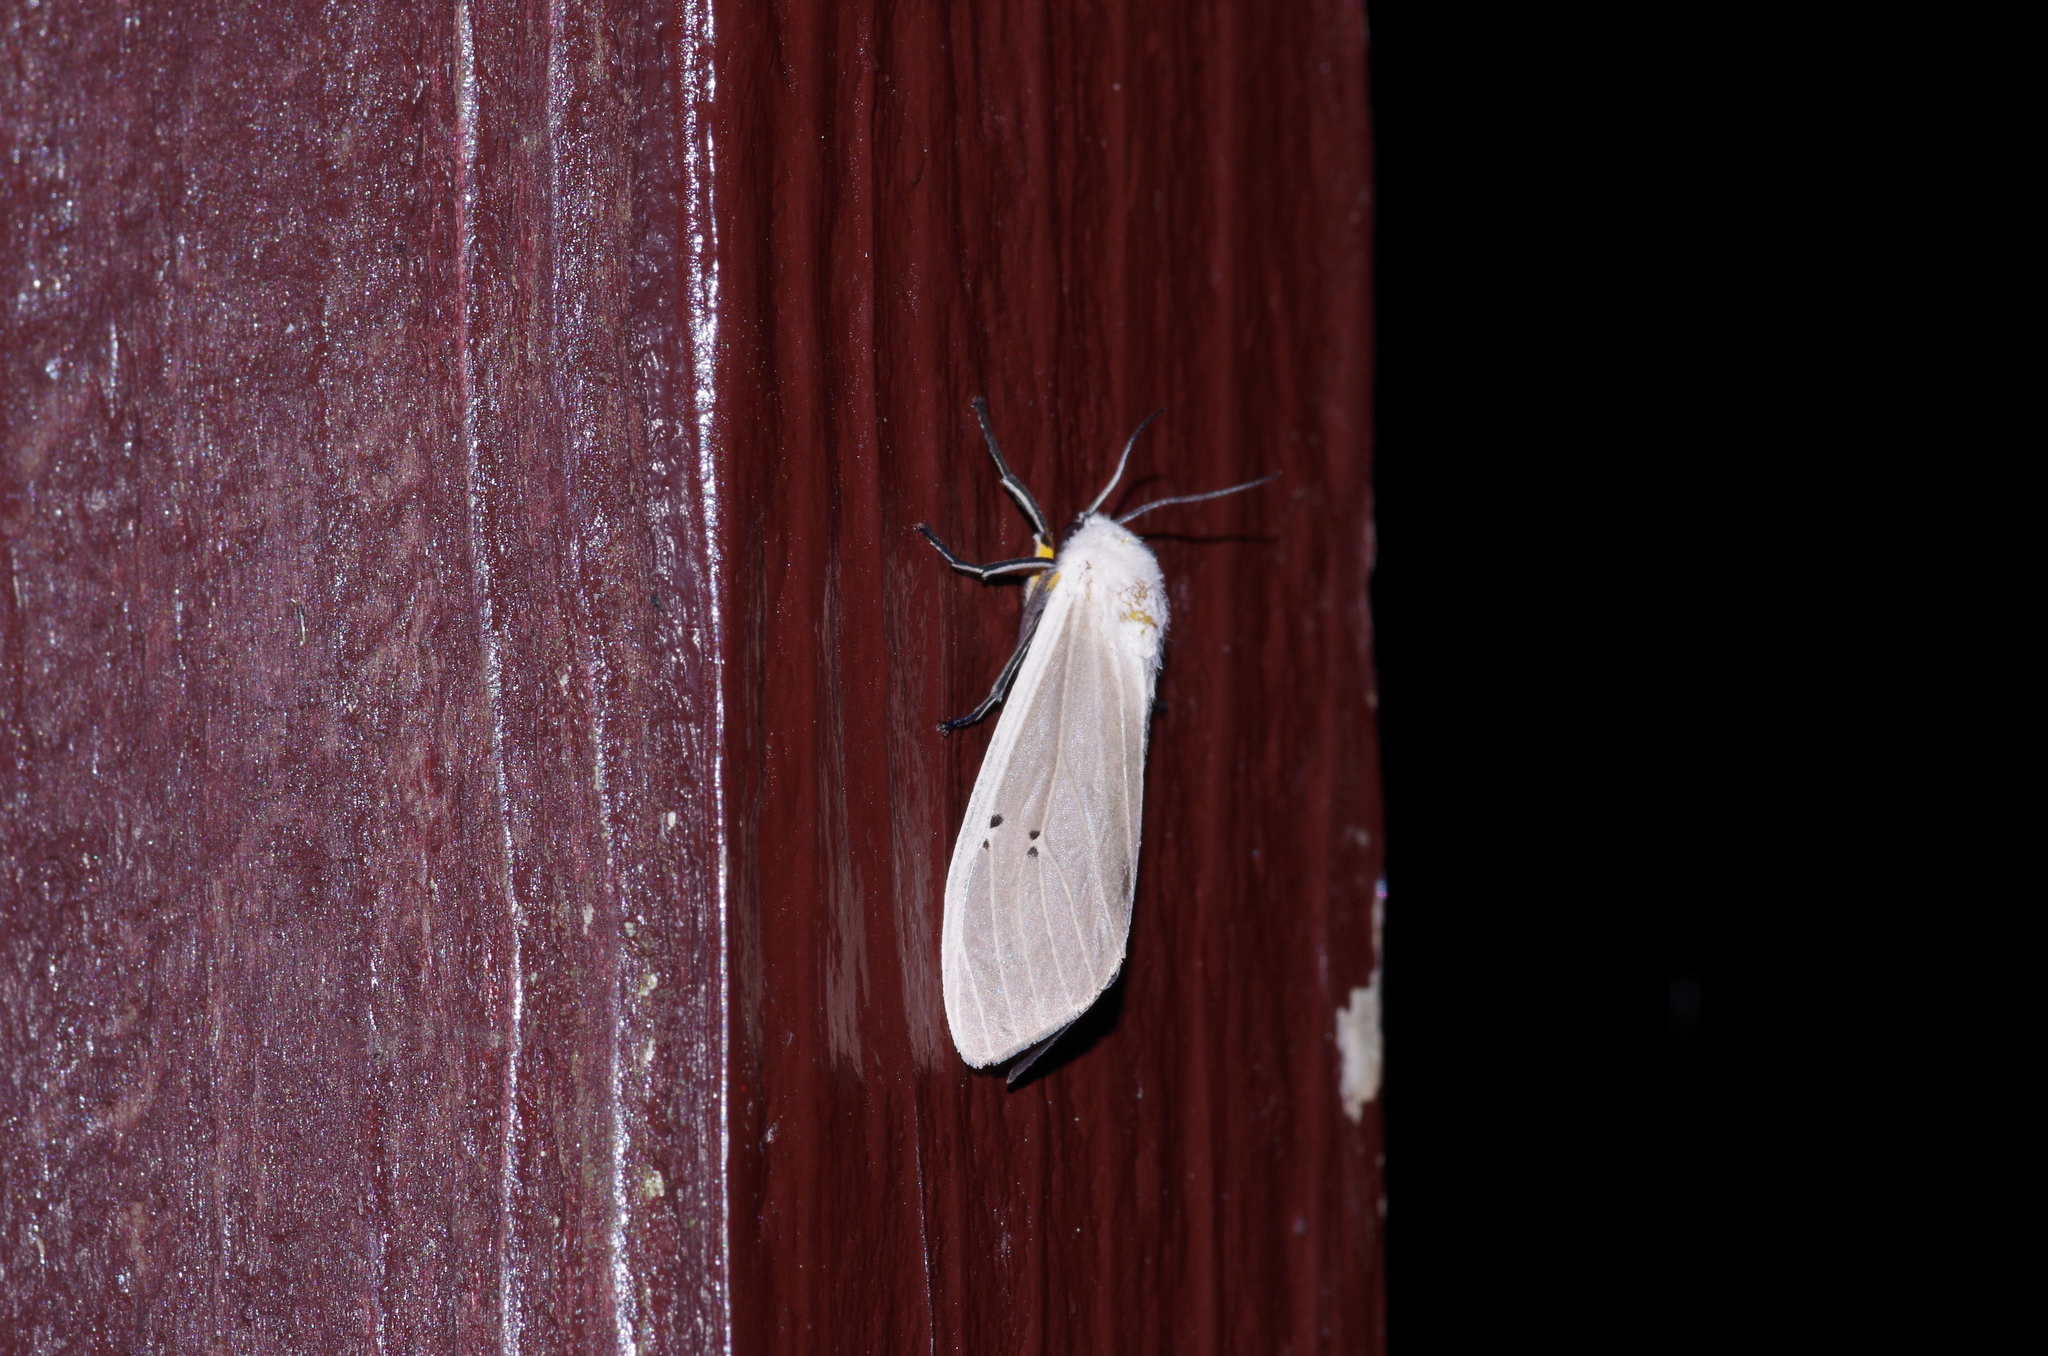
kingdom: Animalia
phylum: Arthropoda
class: Insecta
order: Lepidoptera
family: Erebidae
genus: Creatonotos
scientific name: Creatonotos transiens
